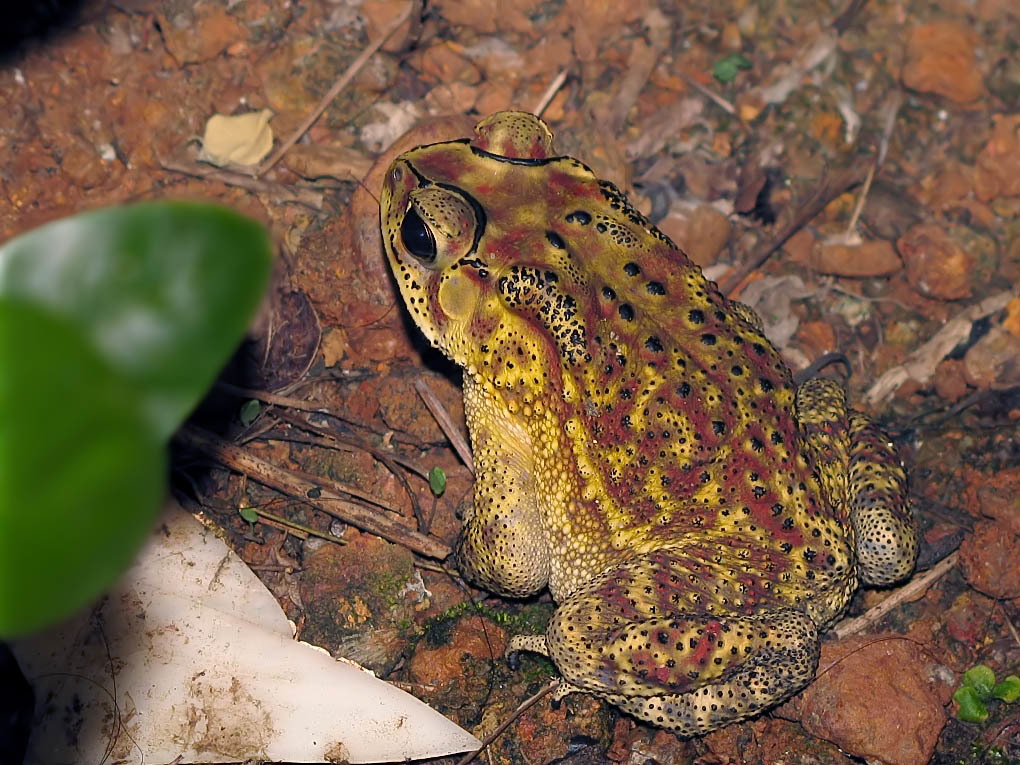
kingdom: Animalia
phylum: Chordata
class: Amphibia
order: Anura
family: Bufonidae
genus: Duttaphrynus
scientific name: Duttaphrynus melanostictus
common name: Common sunda toad
